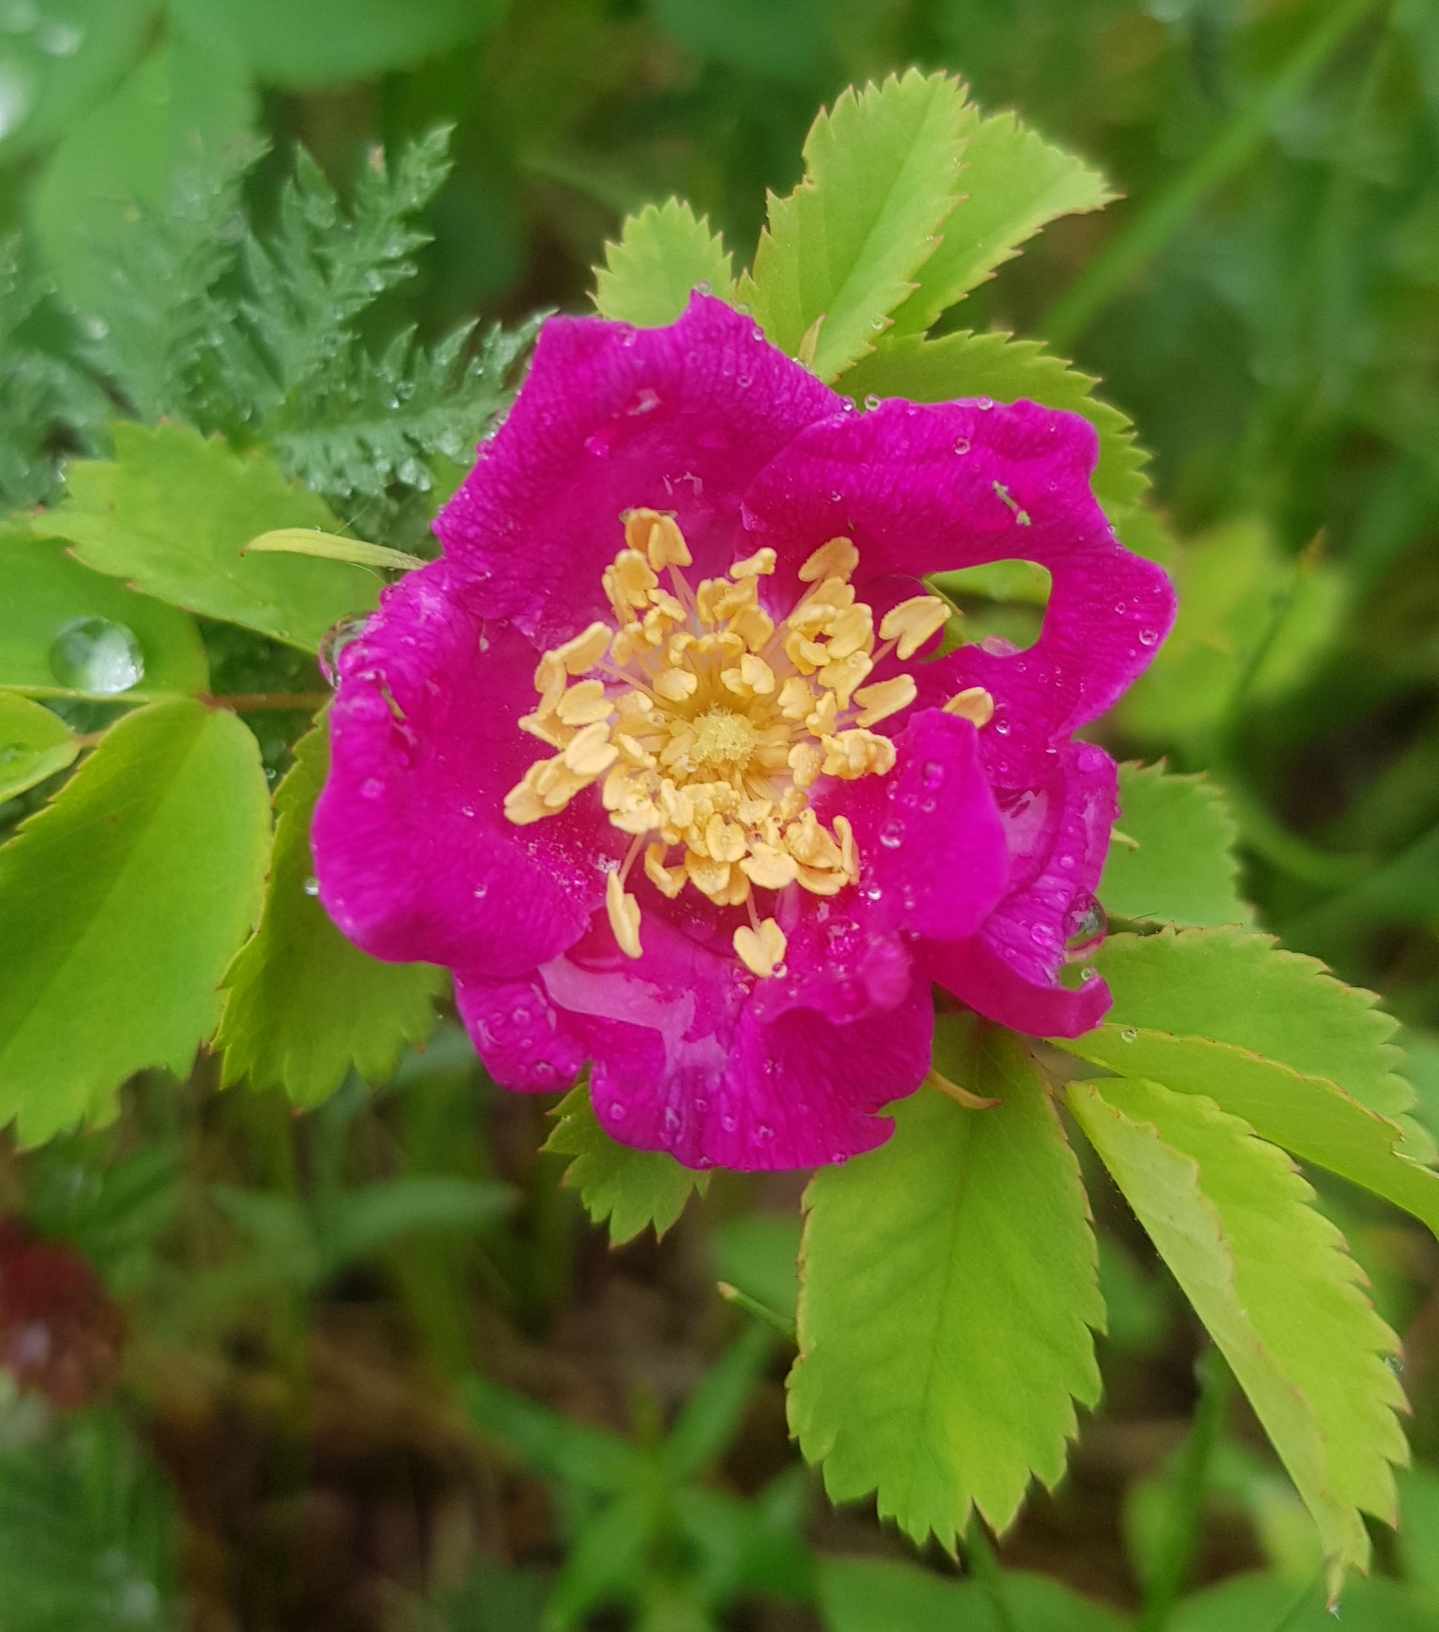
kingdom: Plantae
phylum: Tracheophyta
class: Magnoliopsida
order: Rosales
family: Rosaceae
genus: Rosa
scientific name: Rosa acicularis
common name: Prickly rose
